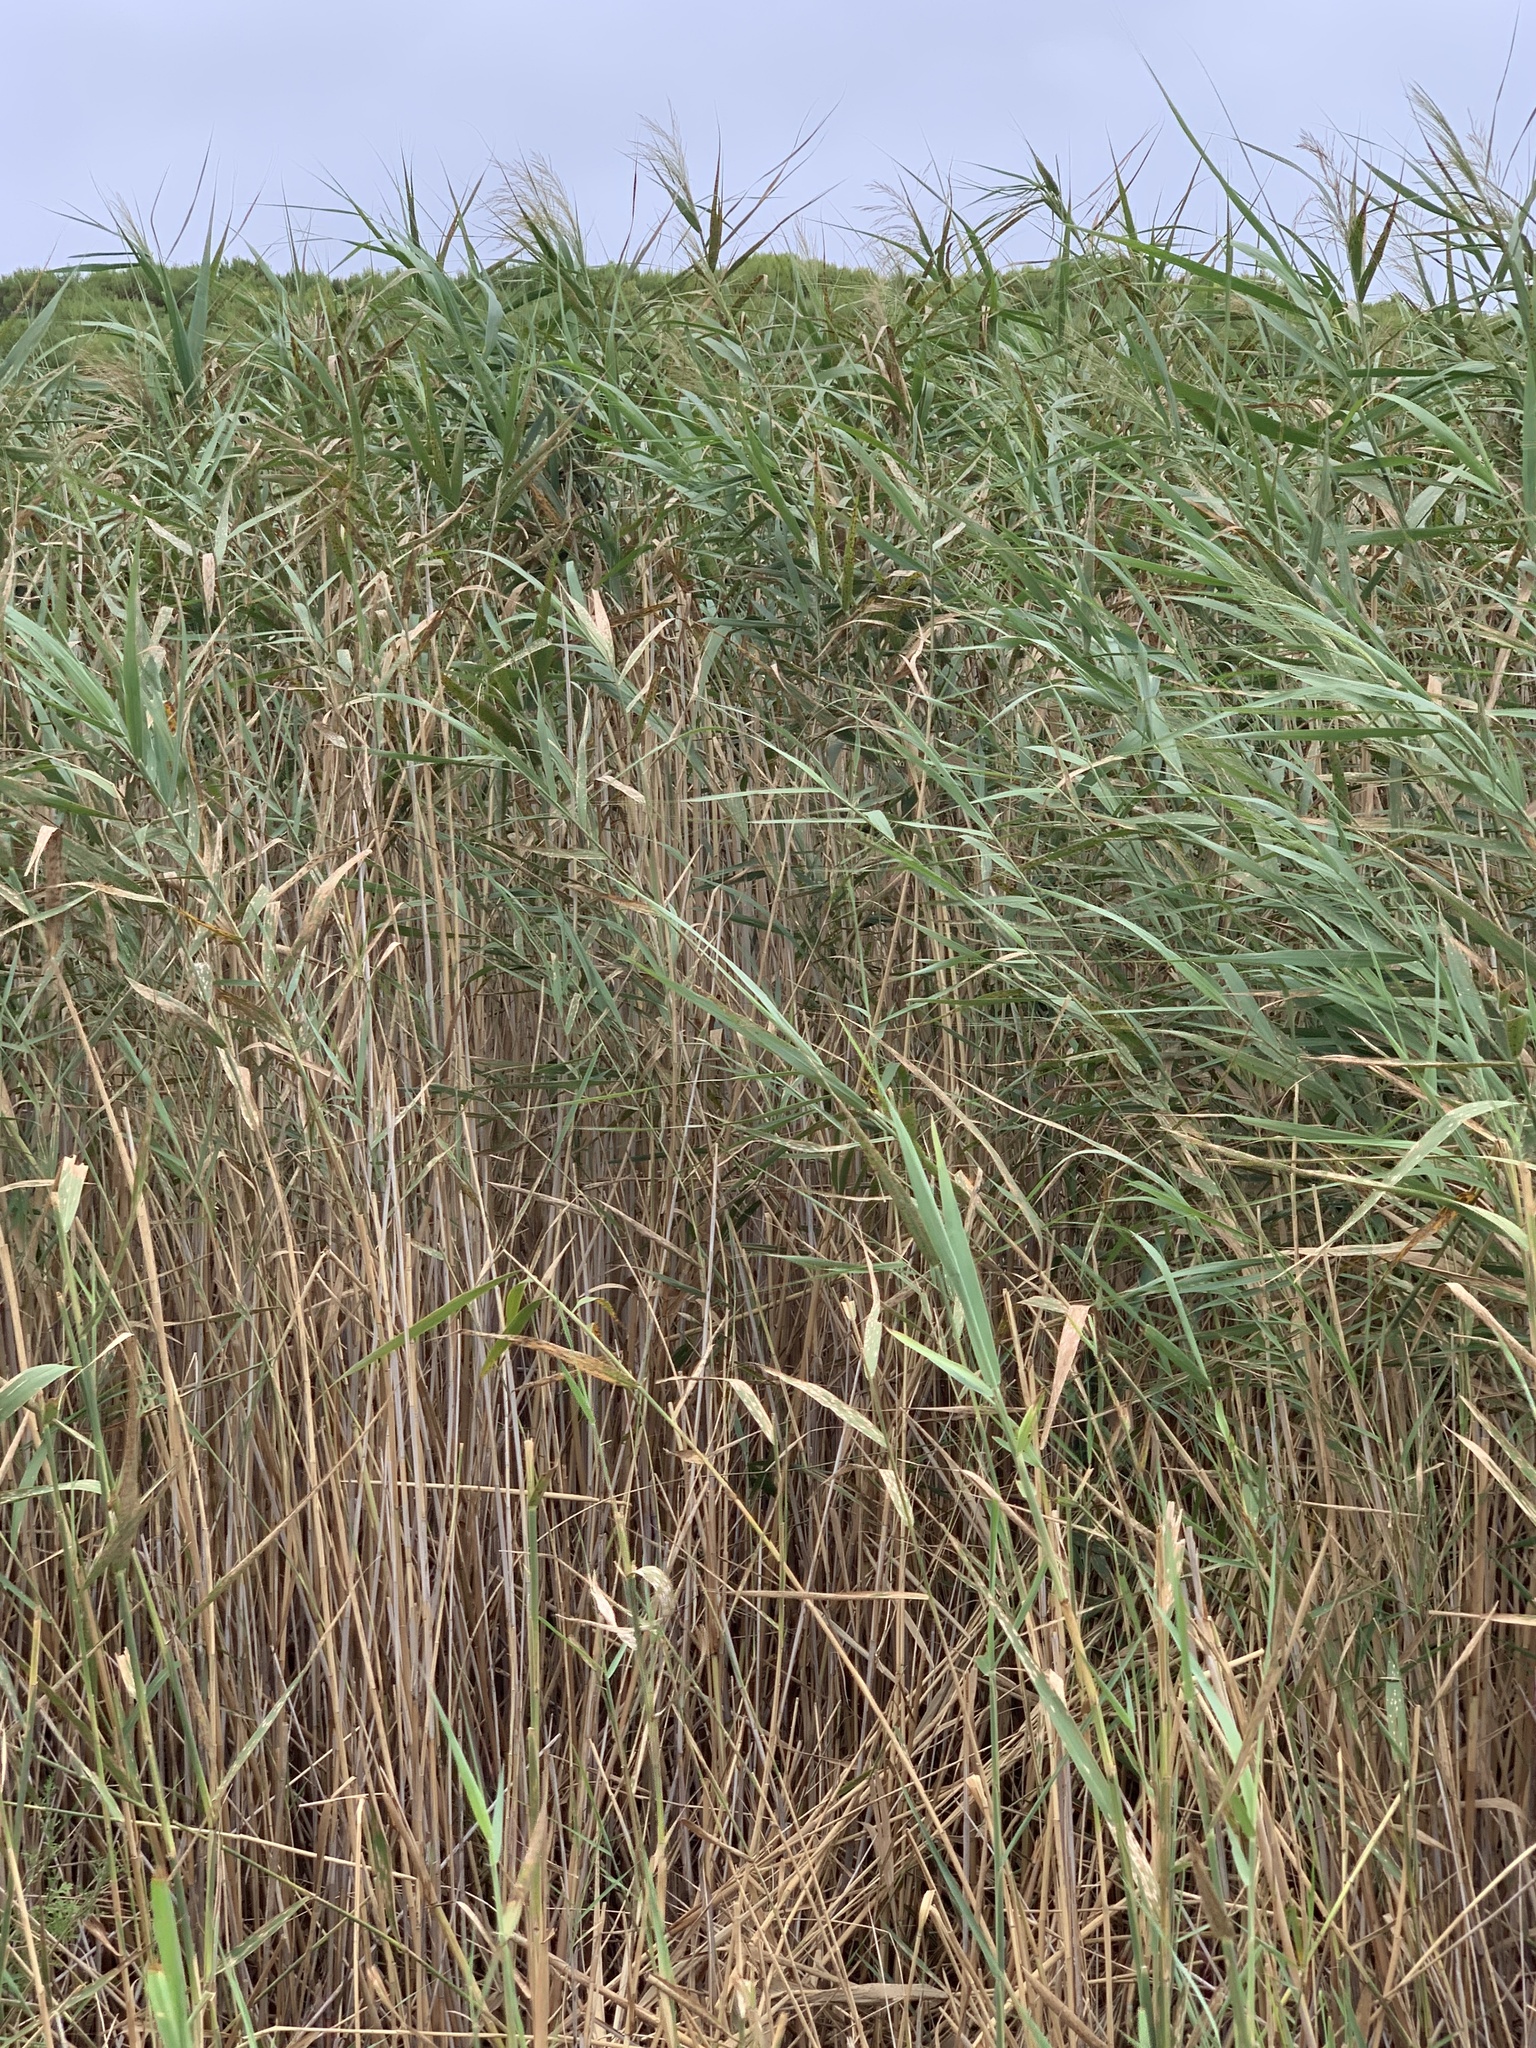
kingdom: Plantae
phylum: Tracheophyta
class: Liliopsida
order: Poales
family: Poaceae
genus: Phragmites
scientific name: Phragmites australis
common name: Common reed
